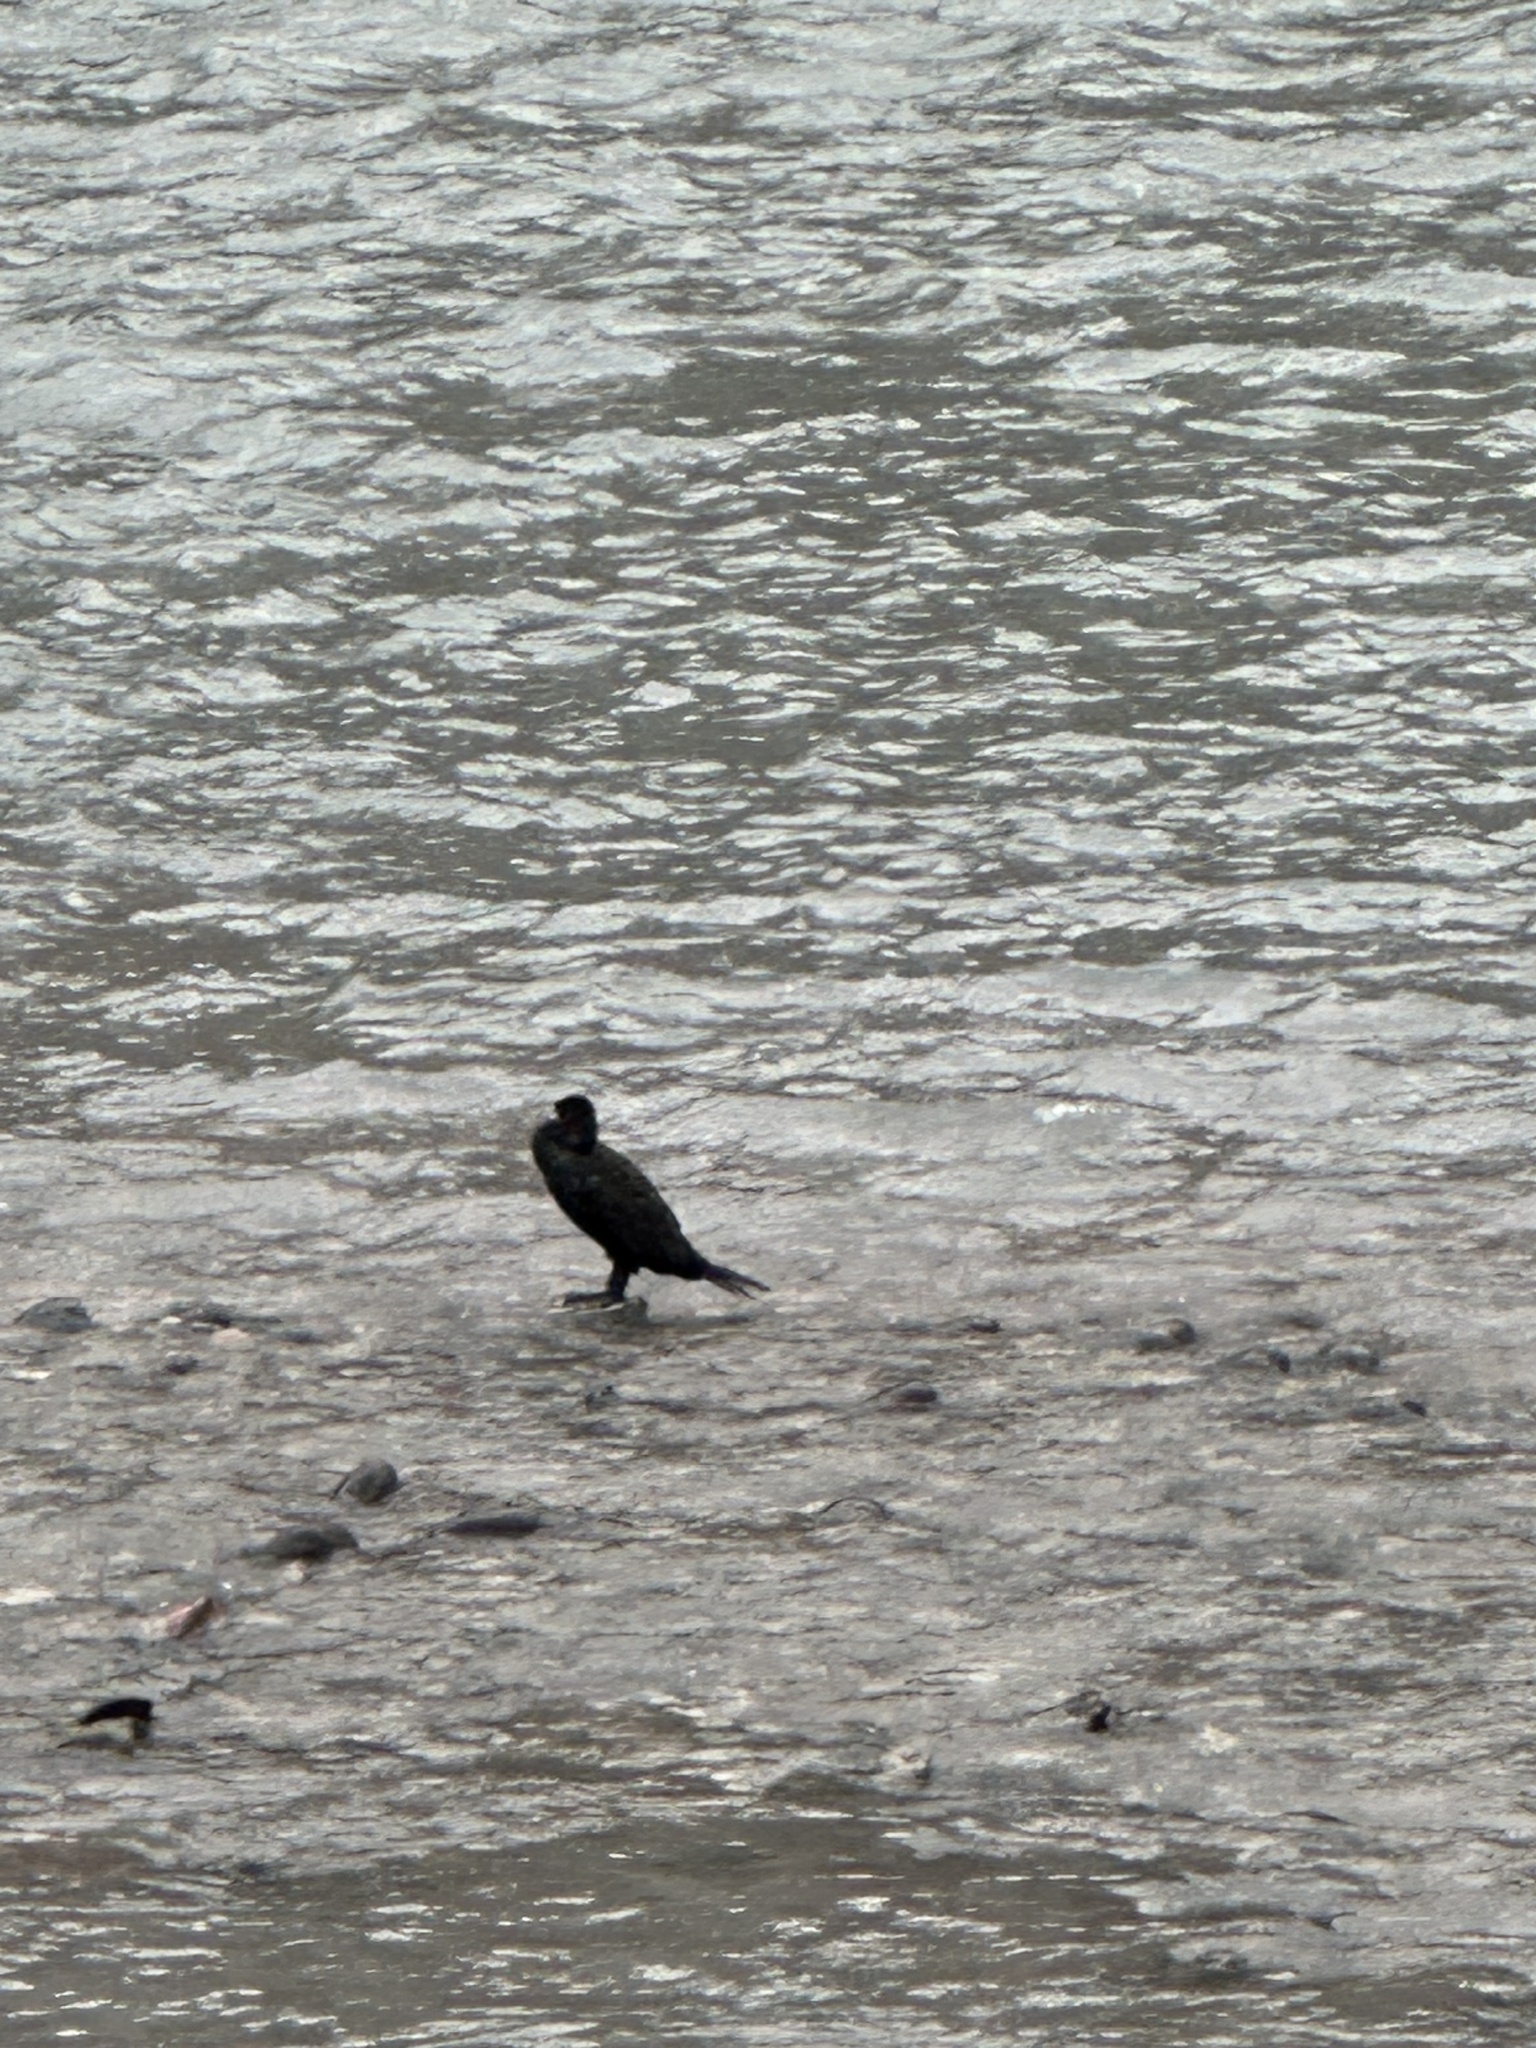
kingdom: Animalia
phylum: Chordata
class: Aves
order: Suliformes
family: Phalacrocoracidae
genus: Phalacrocorax
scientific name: Phalacrocorax carbo
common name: Great cormorant
